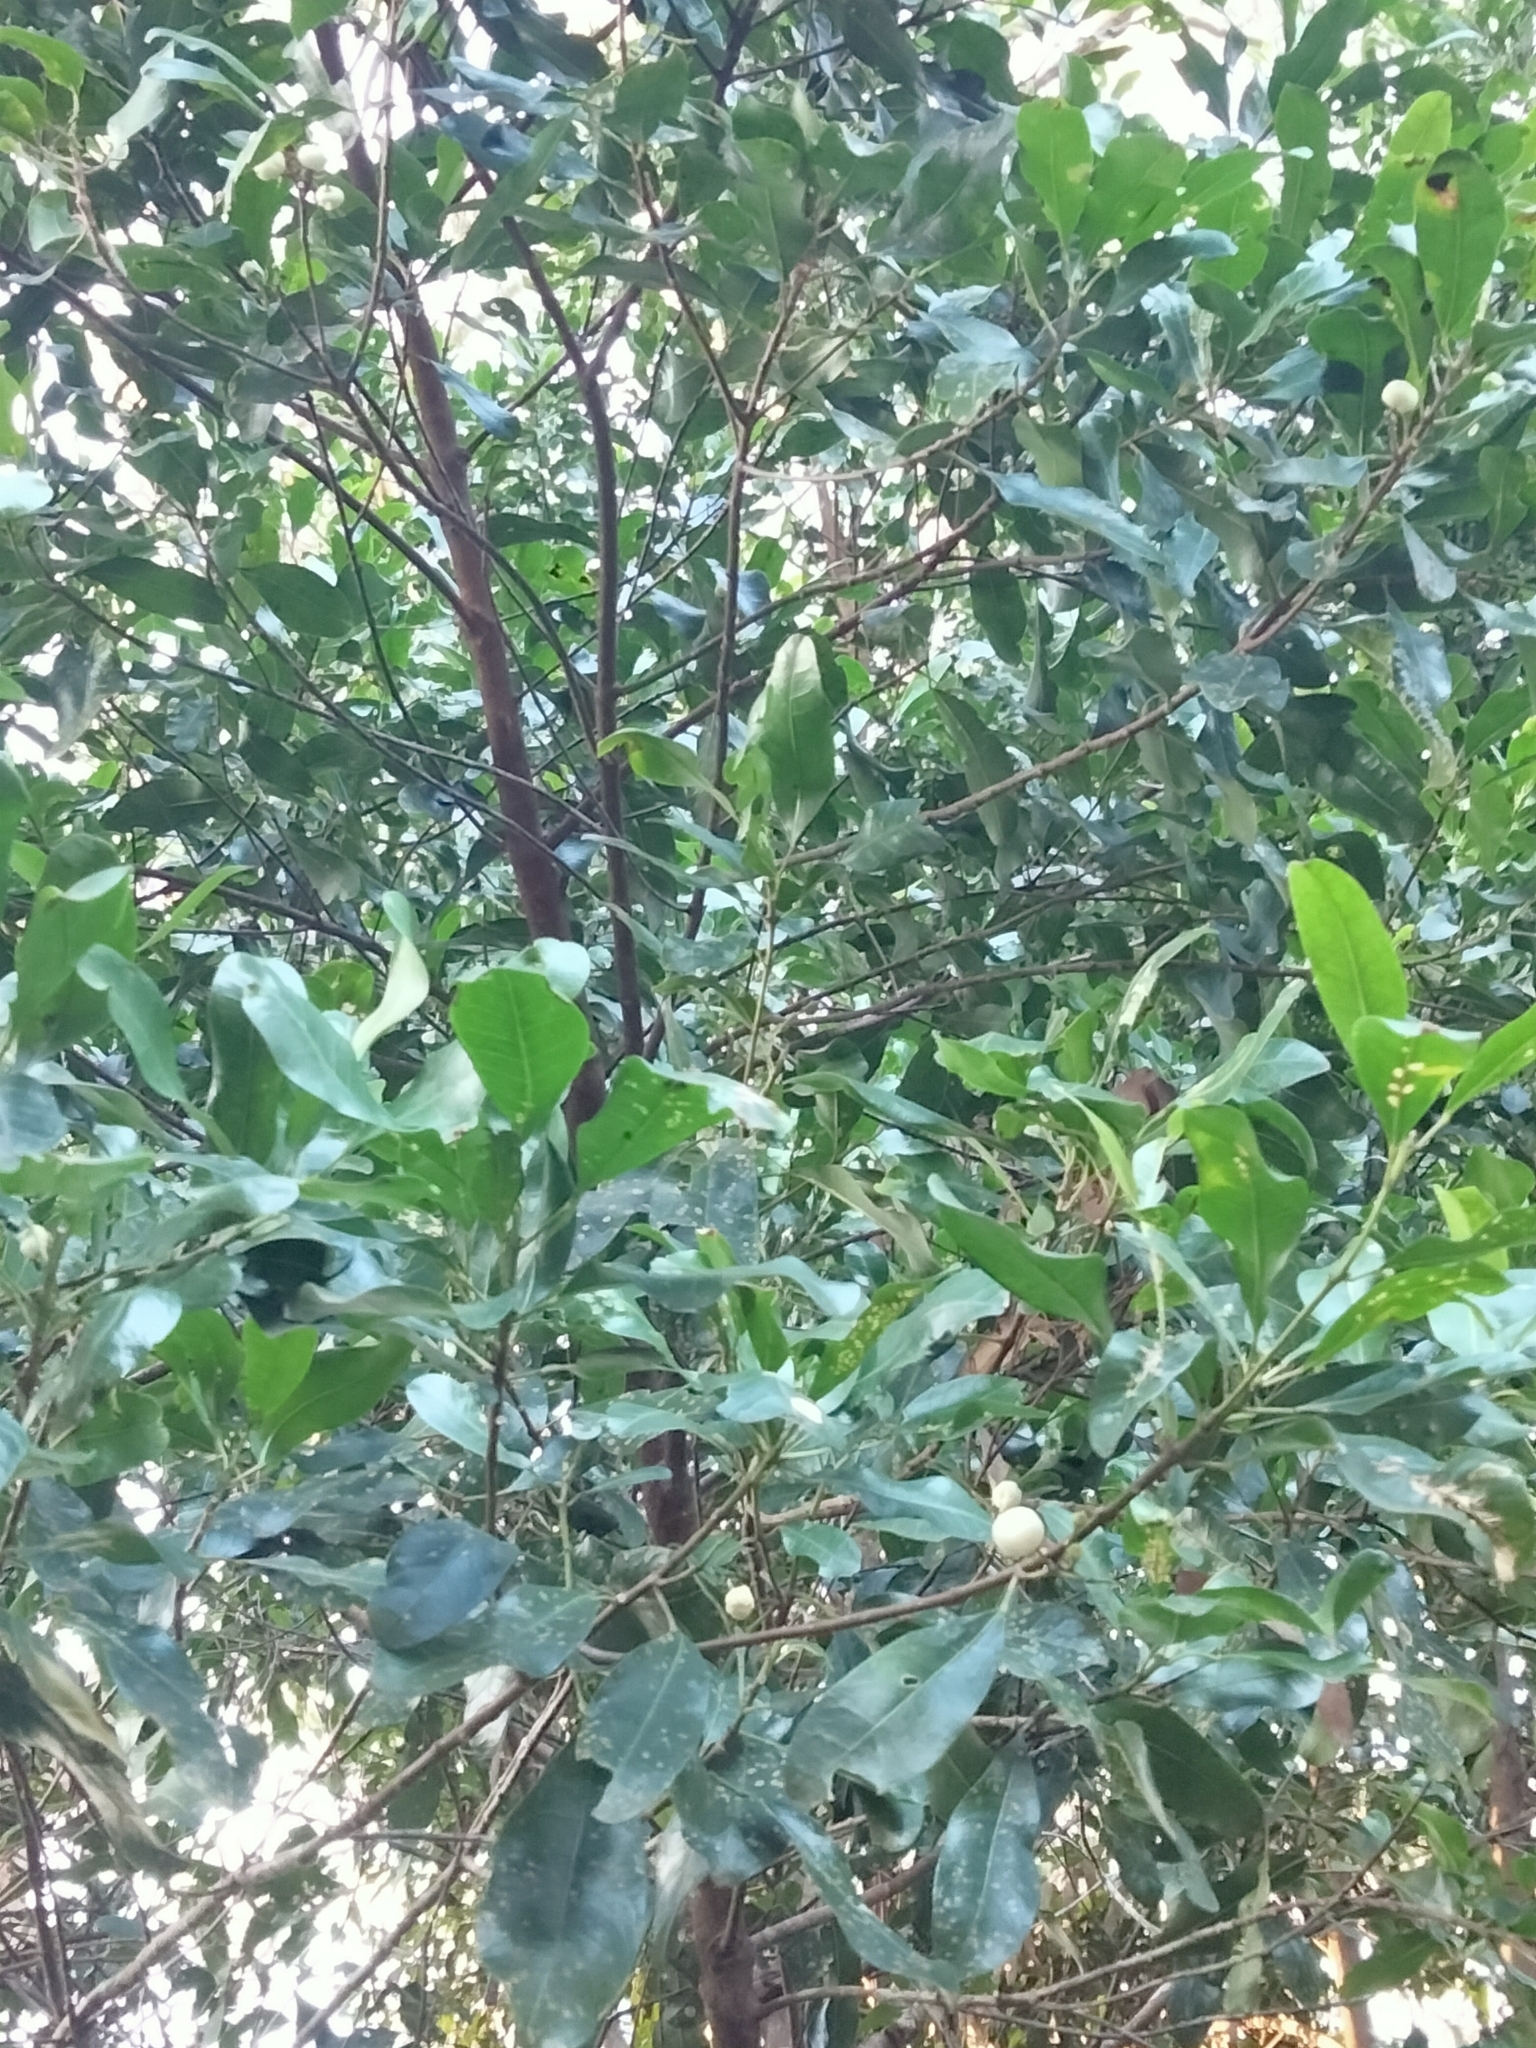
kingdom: Plantae
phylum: Tracheophyta
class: Magnoliopsida
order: Sapindales
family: Rutaceae
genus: Acronychia
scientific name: Acronychia oblongifolia
